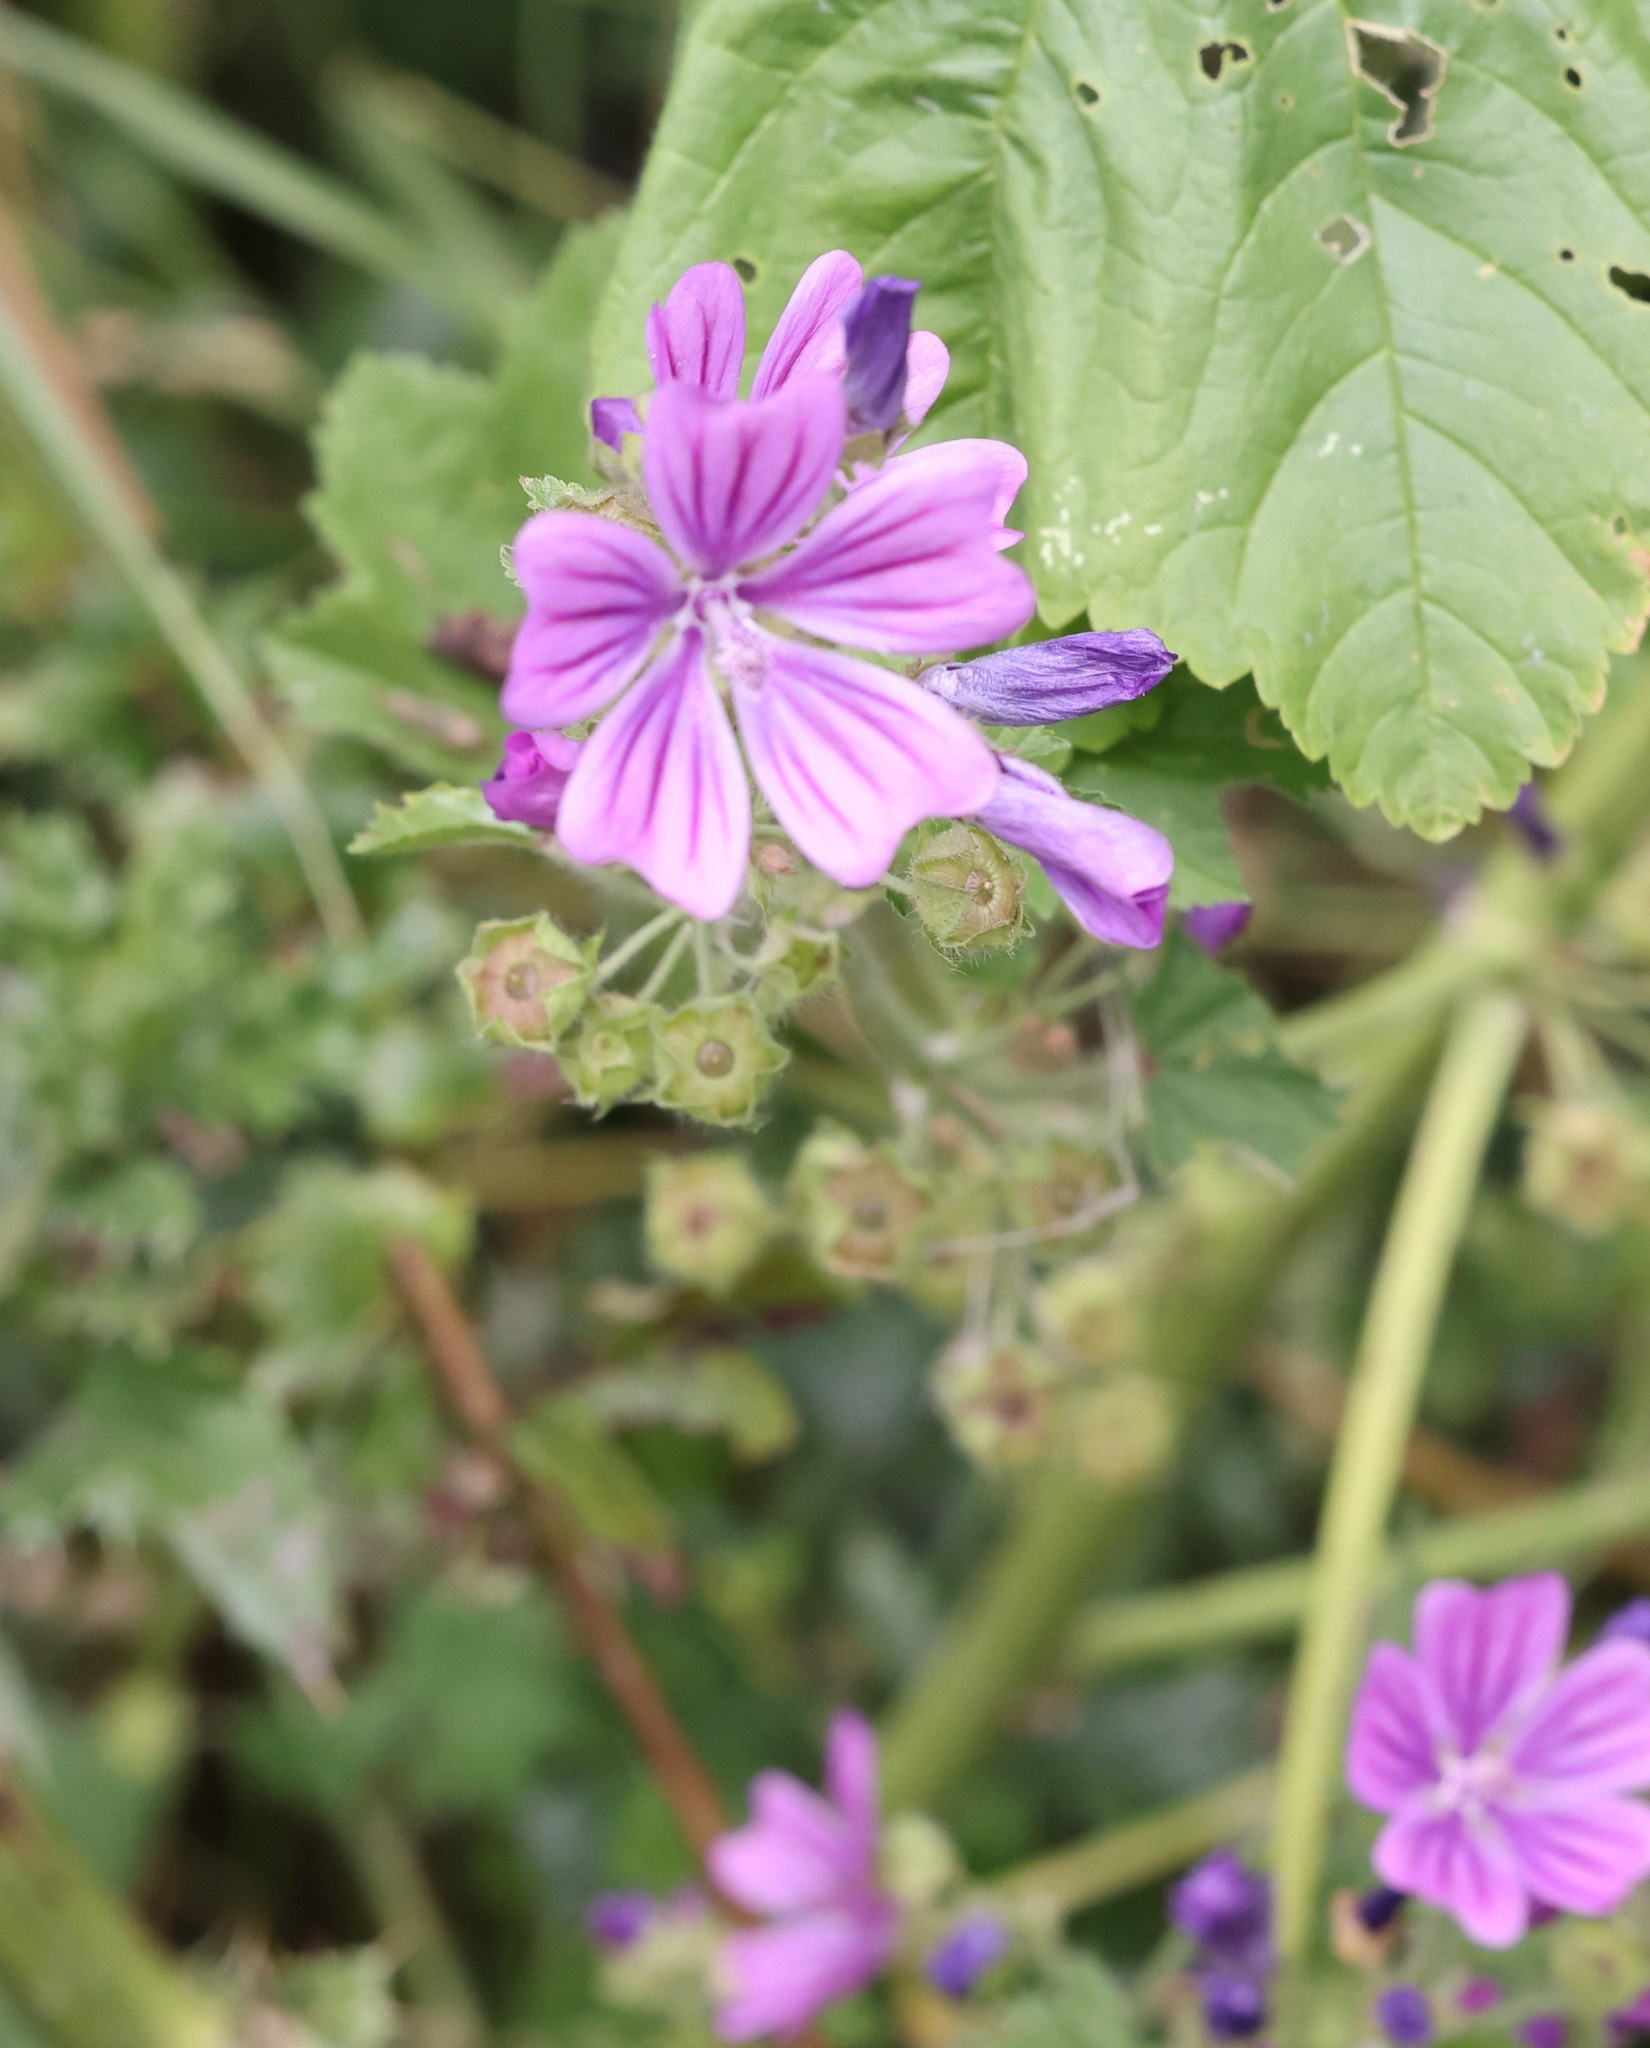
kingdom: Plantae
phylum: Tracheophyta
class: Magnoliopsida
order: Malvales
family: Malvaceae
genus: Malva
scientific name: Malva sylvestris
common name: Common mallow
